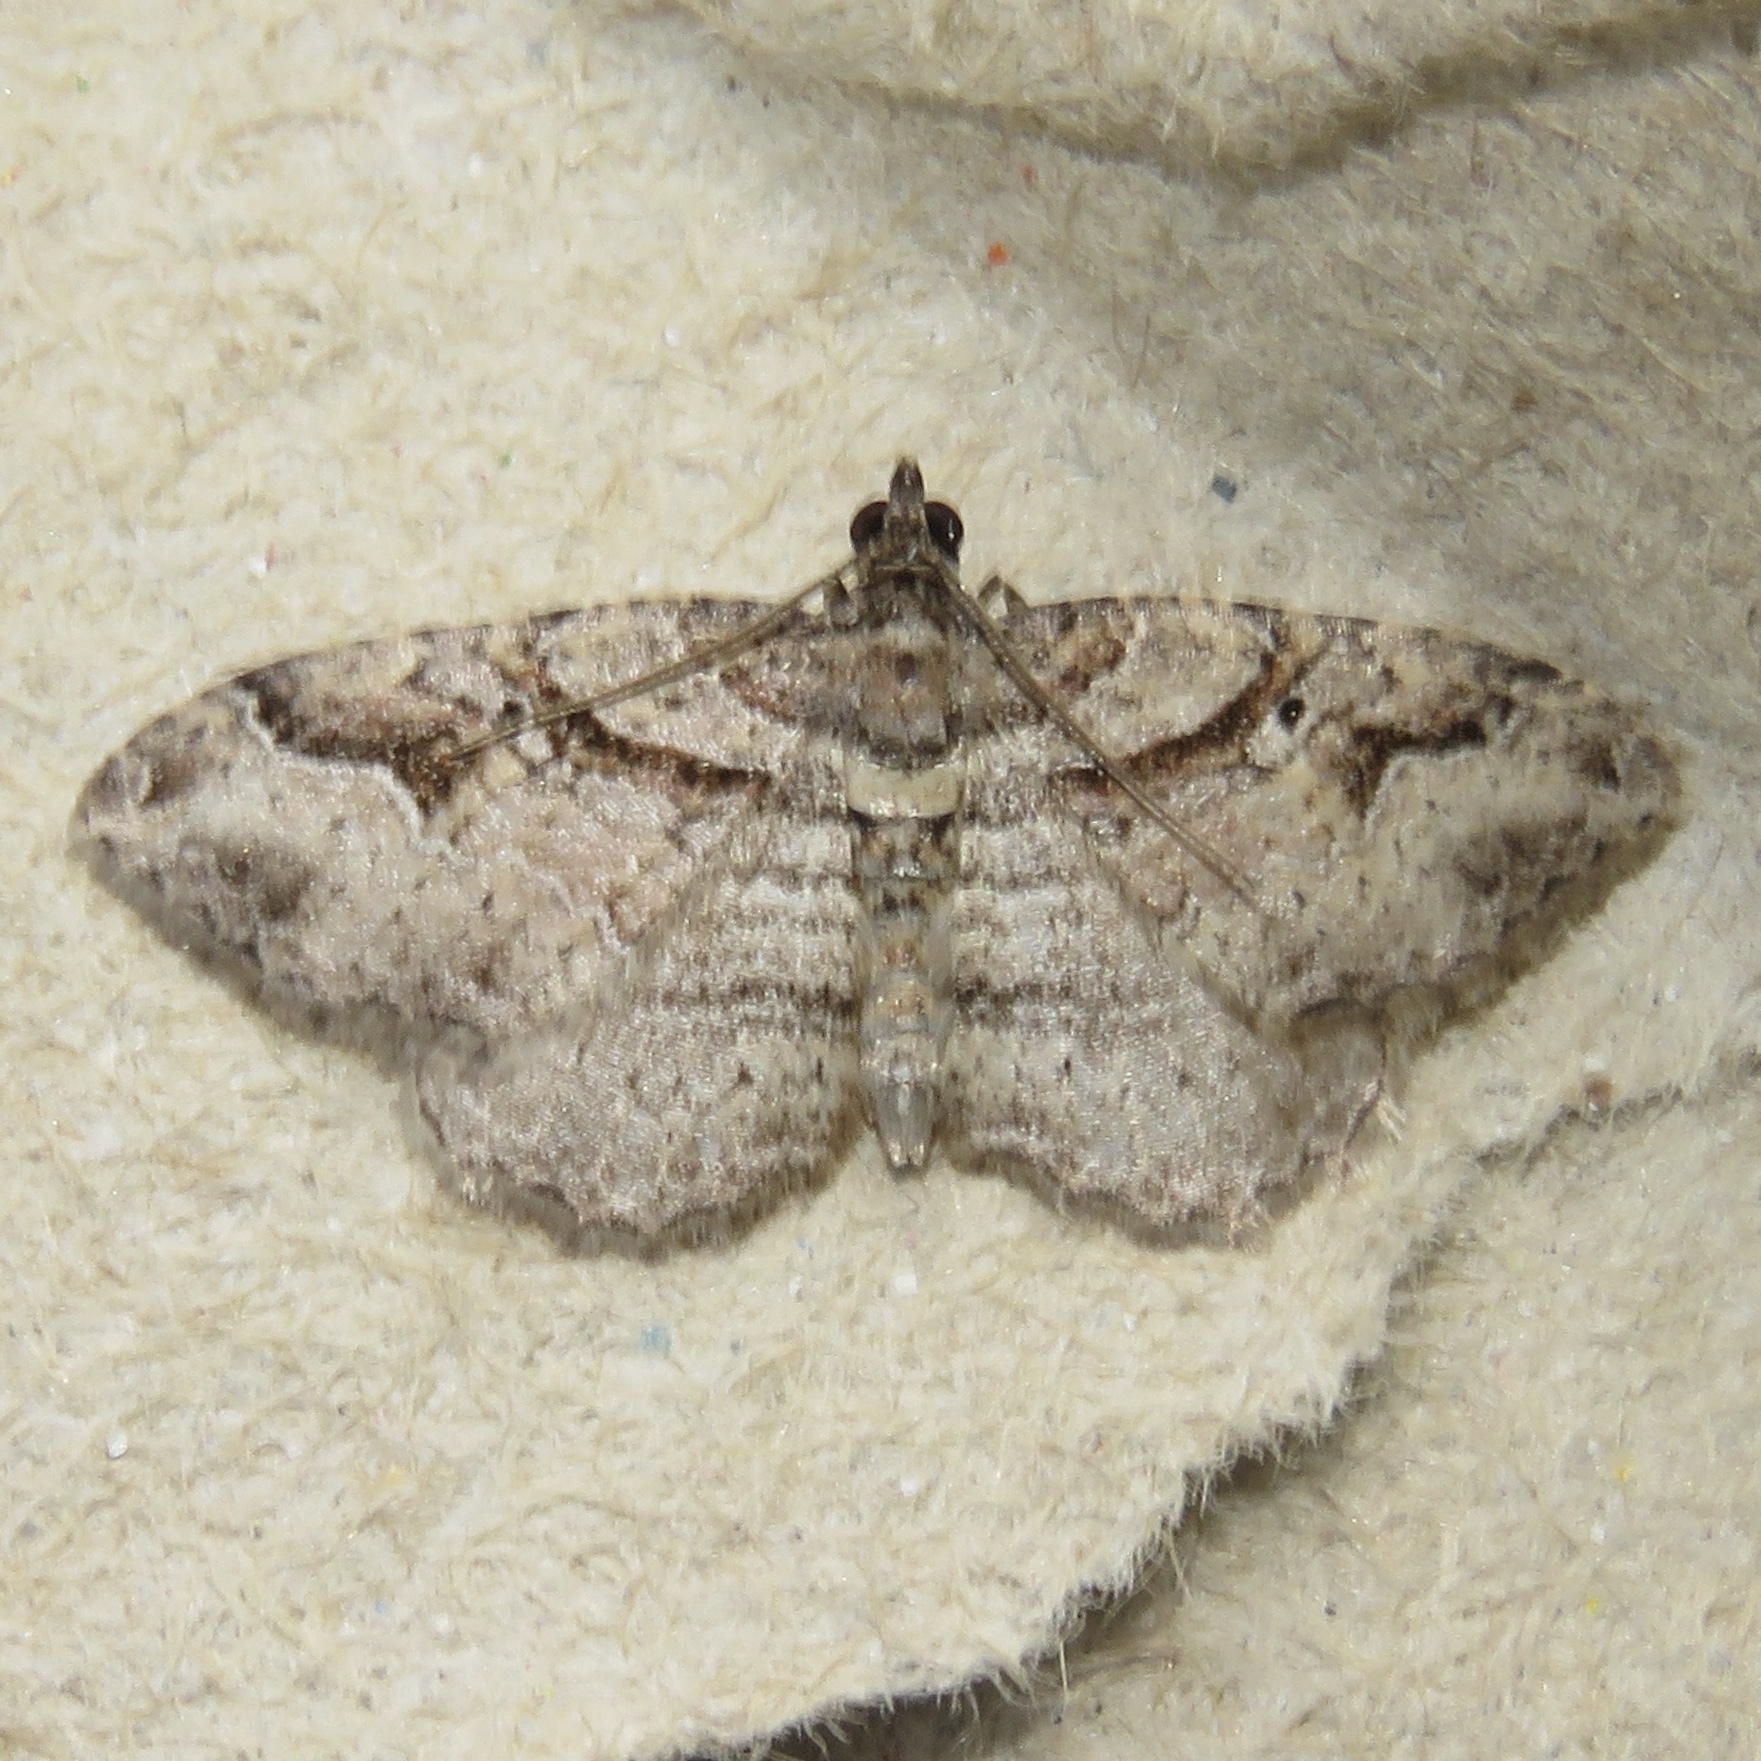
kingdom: Animalia
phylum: Arthropoda
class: Insecta
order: Lepidoptera
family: Geometridae
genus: Costaconvexa
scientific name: Costaconvexa centrostrigaria
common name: Bent-line carpet
